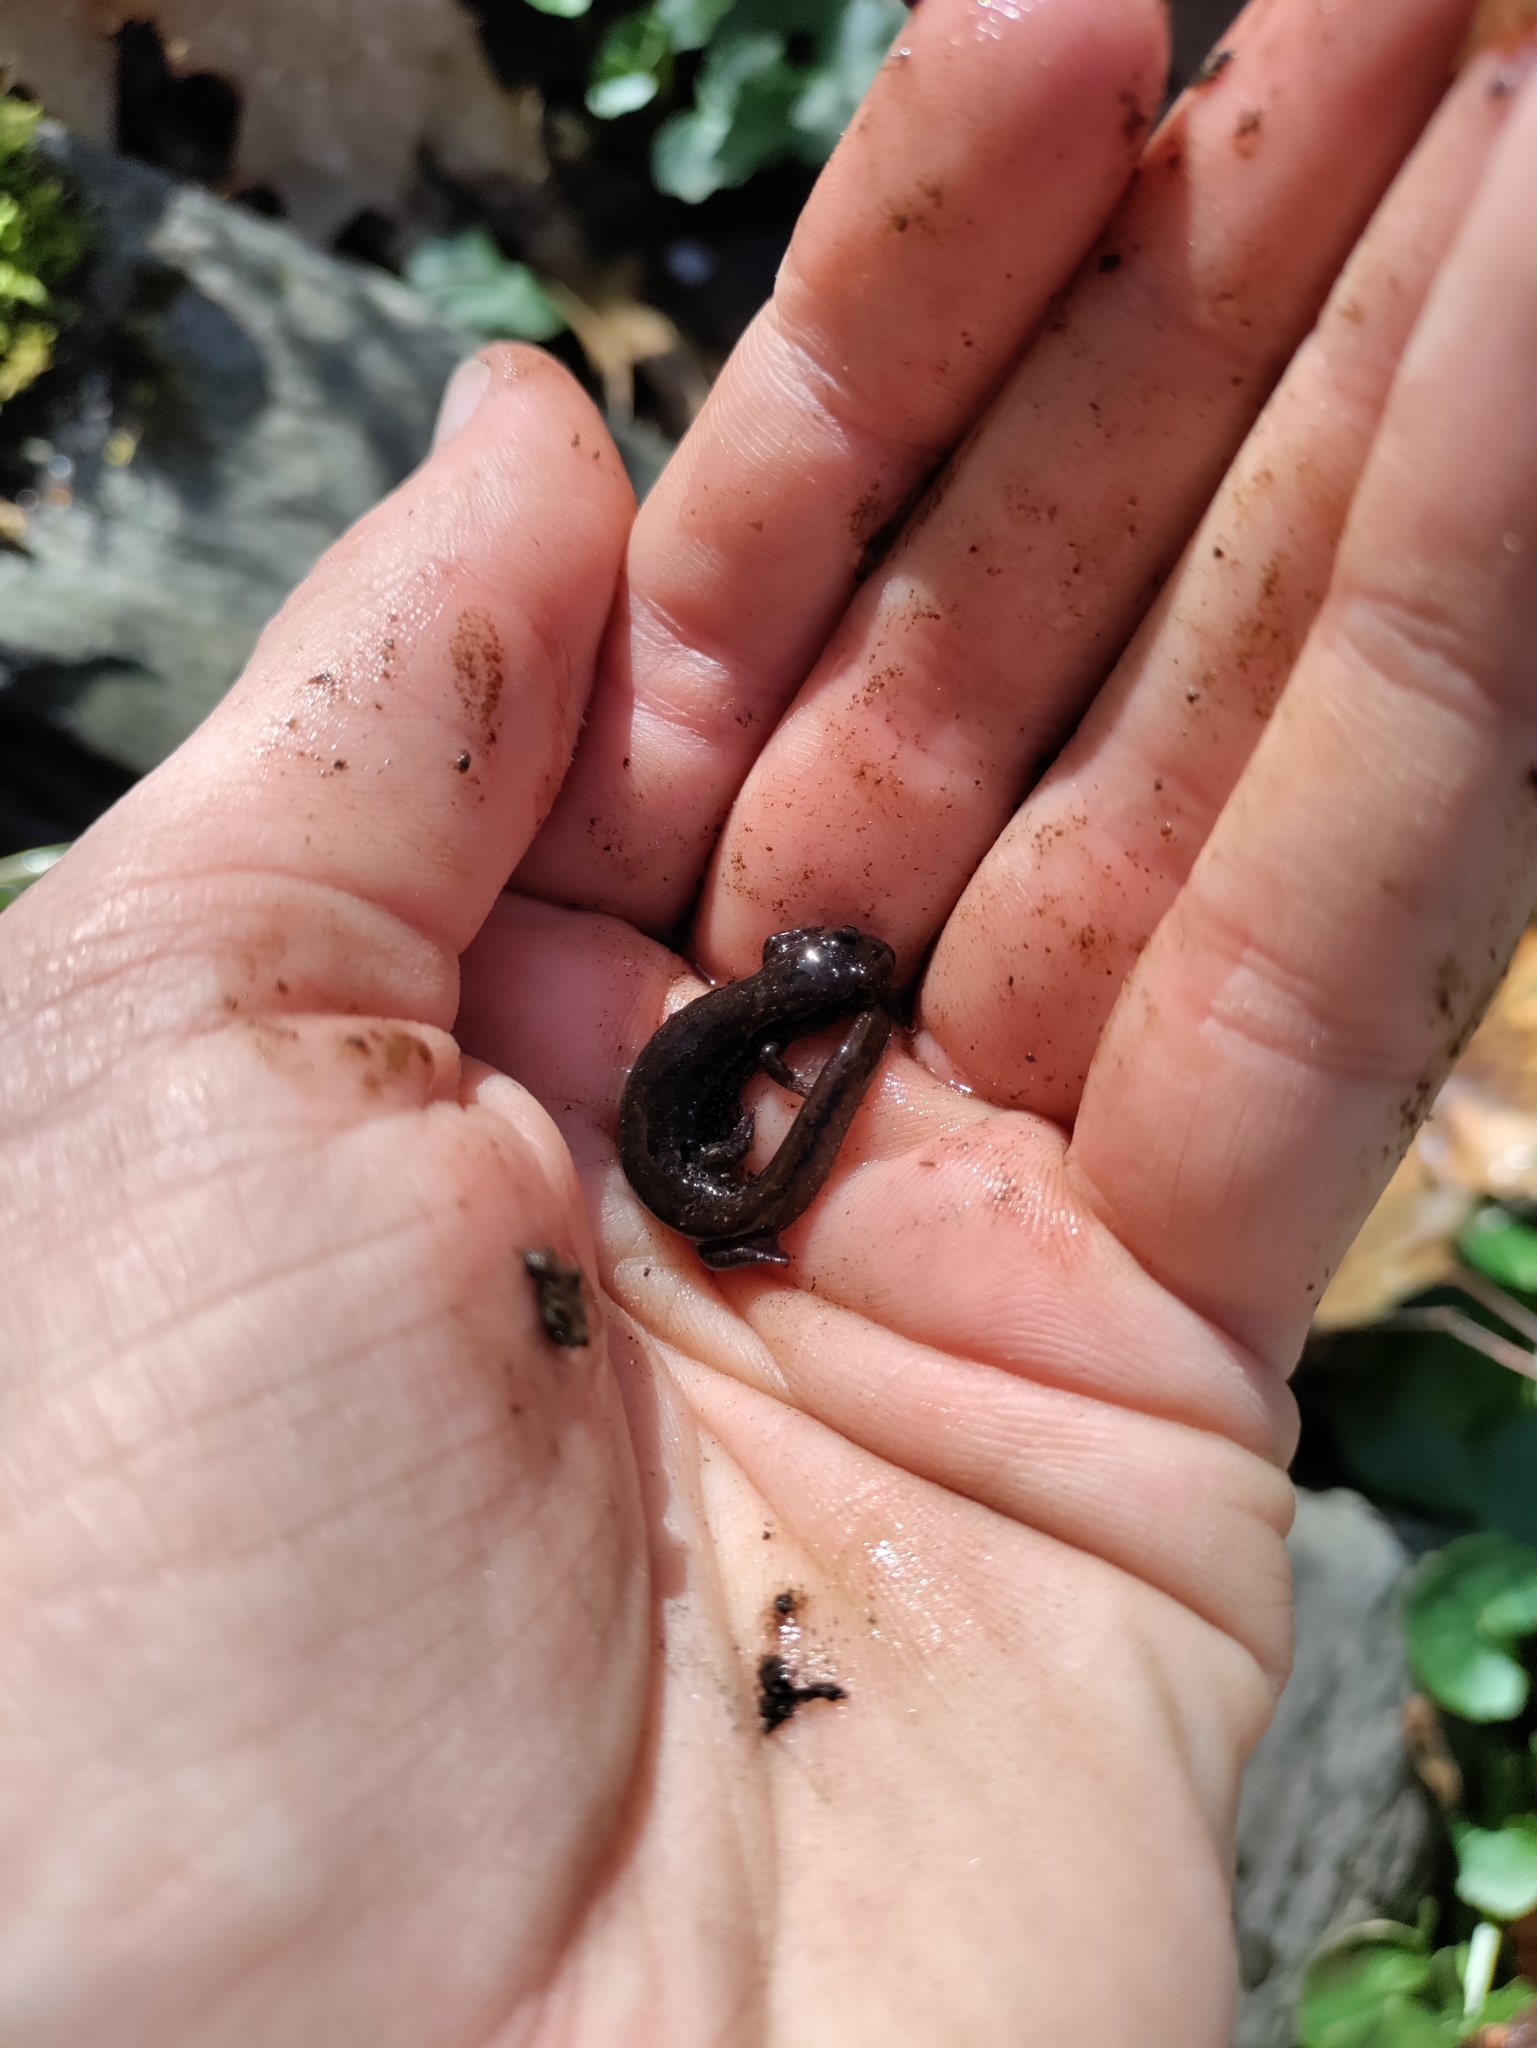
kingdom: Animalia
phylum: Chordata
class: Amphibia
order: Caudata
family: Plethodontidae
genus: Desmognathus
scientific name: Desmognathus fuscus
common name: Northern dusky salamander
